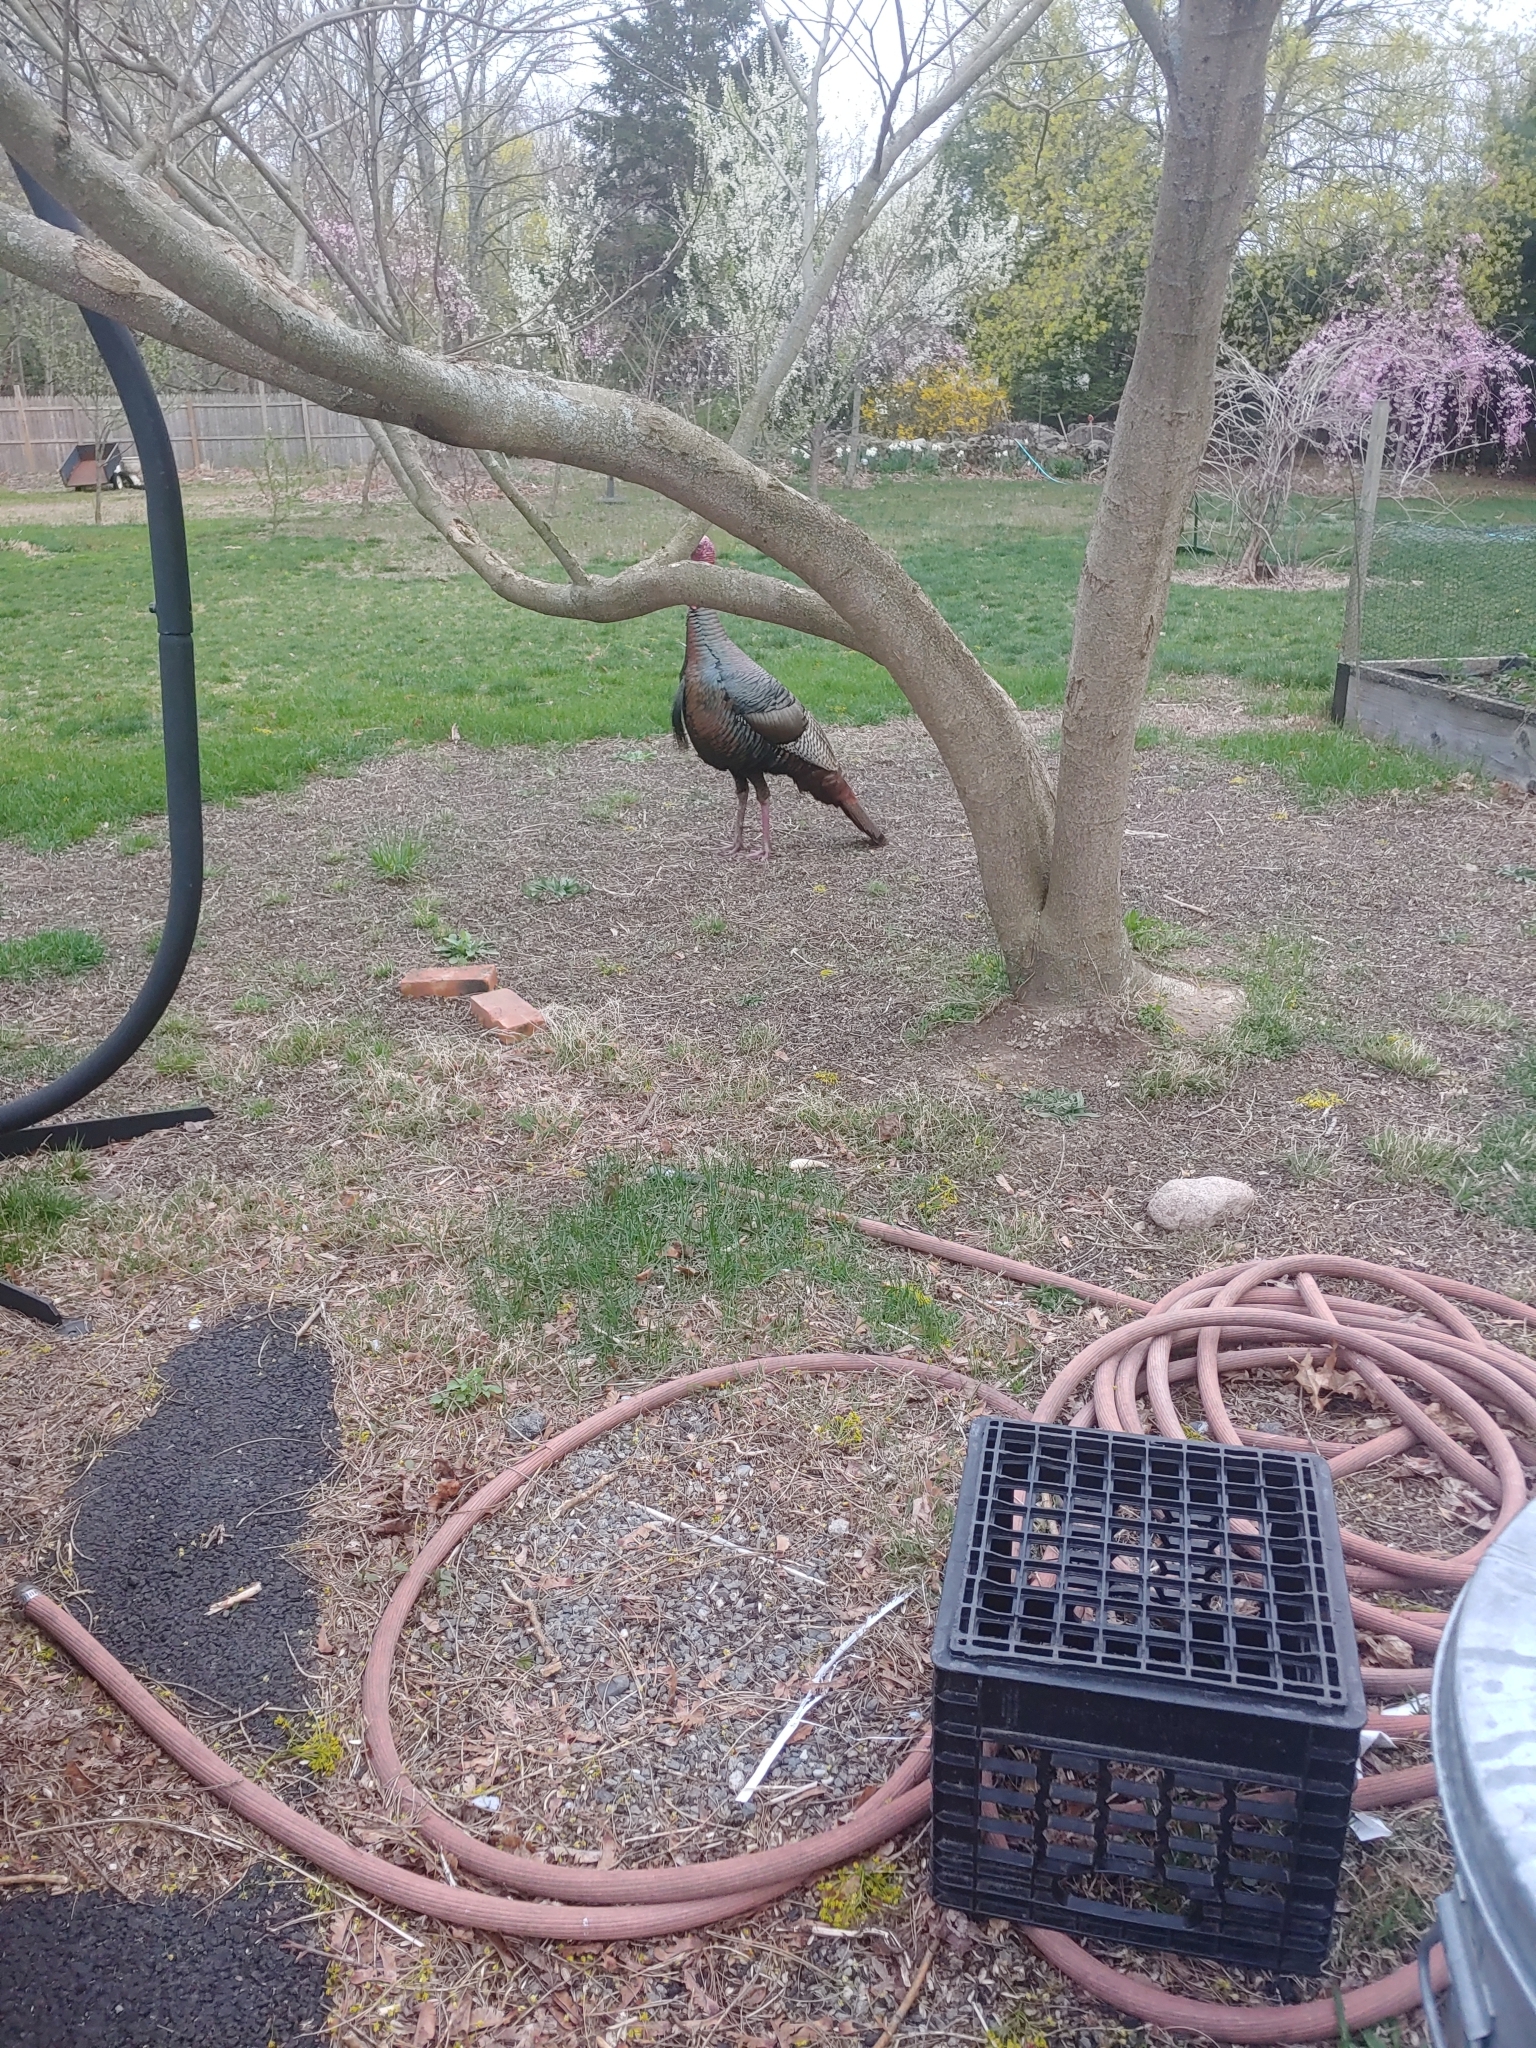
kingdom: Animalia
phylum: Chordata
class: Aves
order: Galliformes
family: Phasianidae
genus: Meleagris
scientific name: Meleagris gallopavo
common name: Wild turkey
